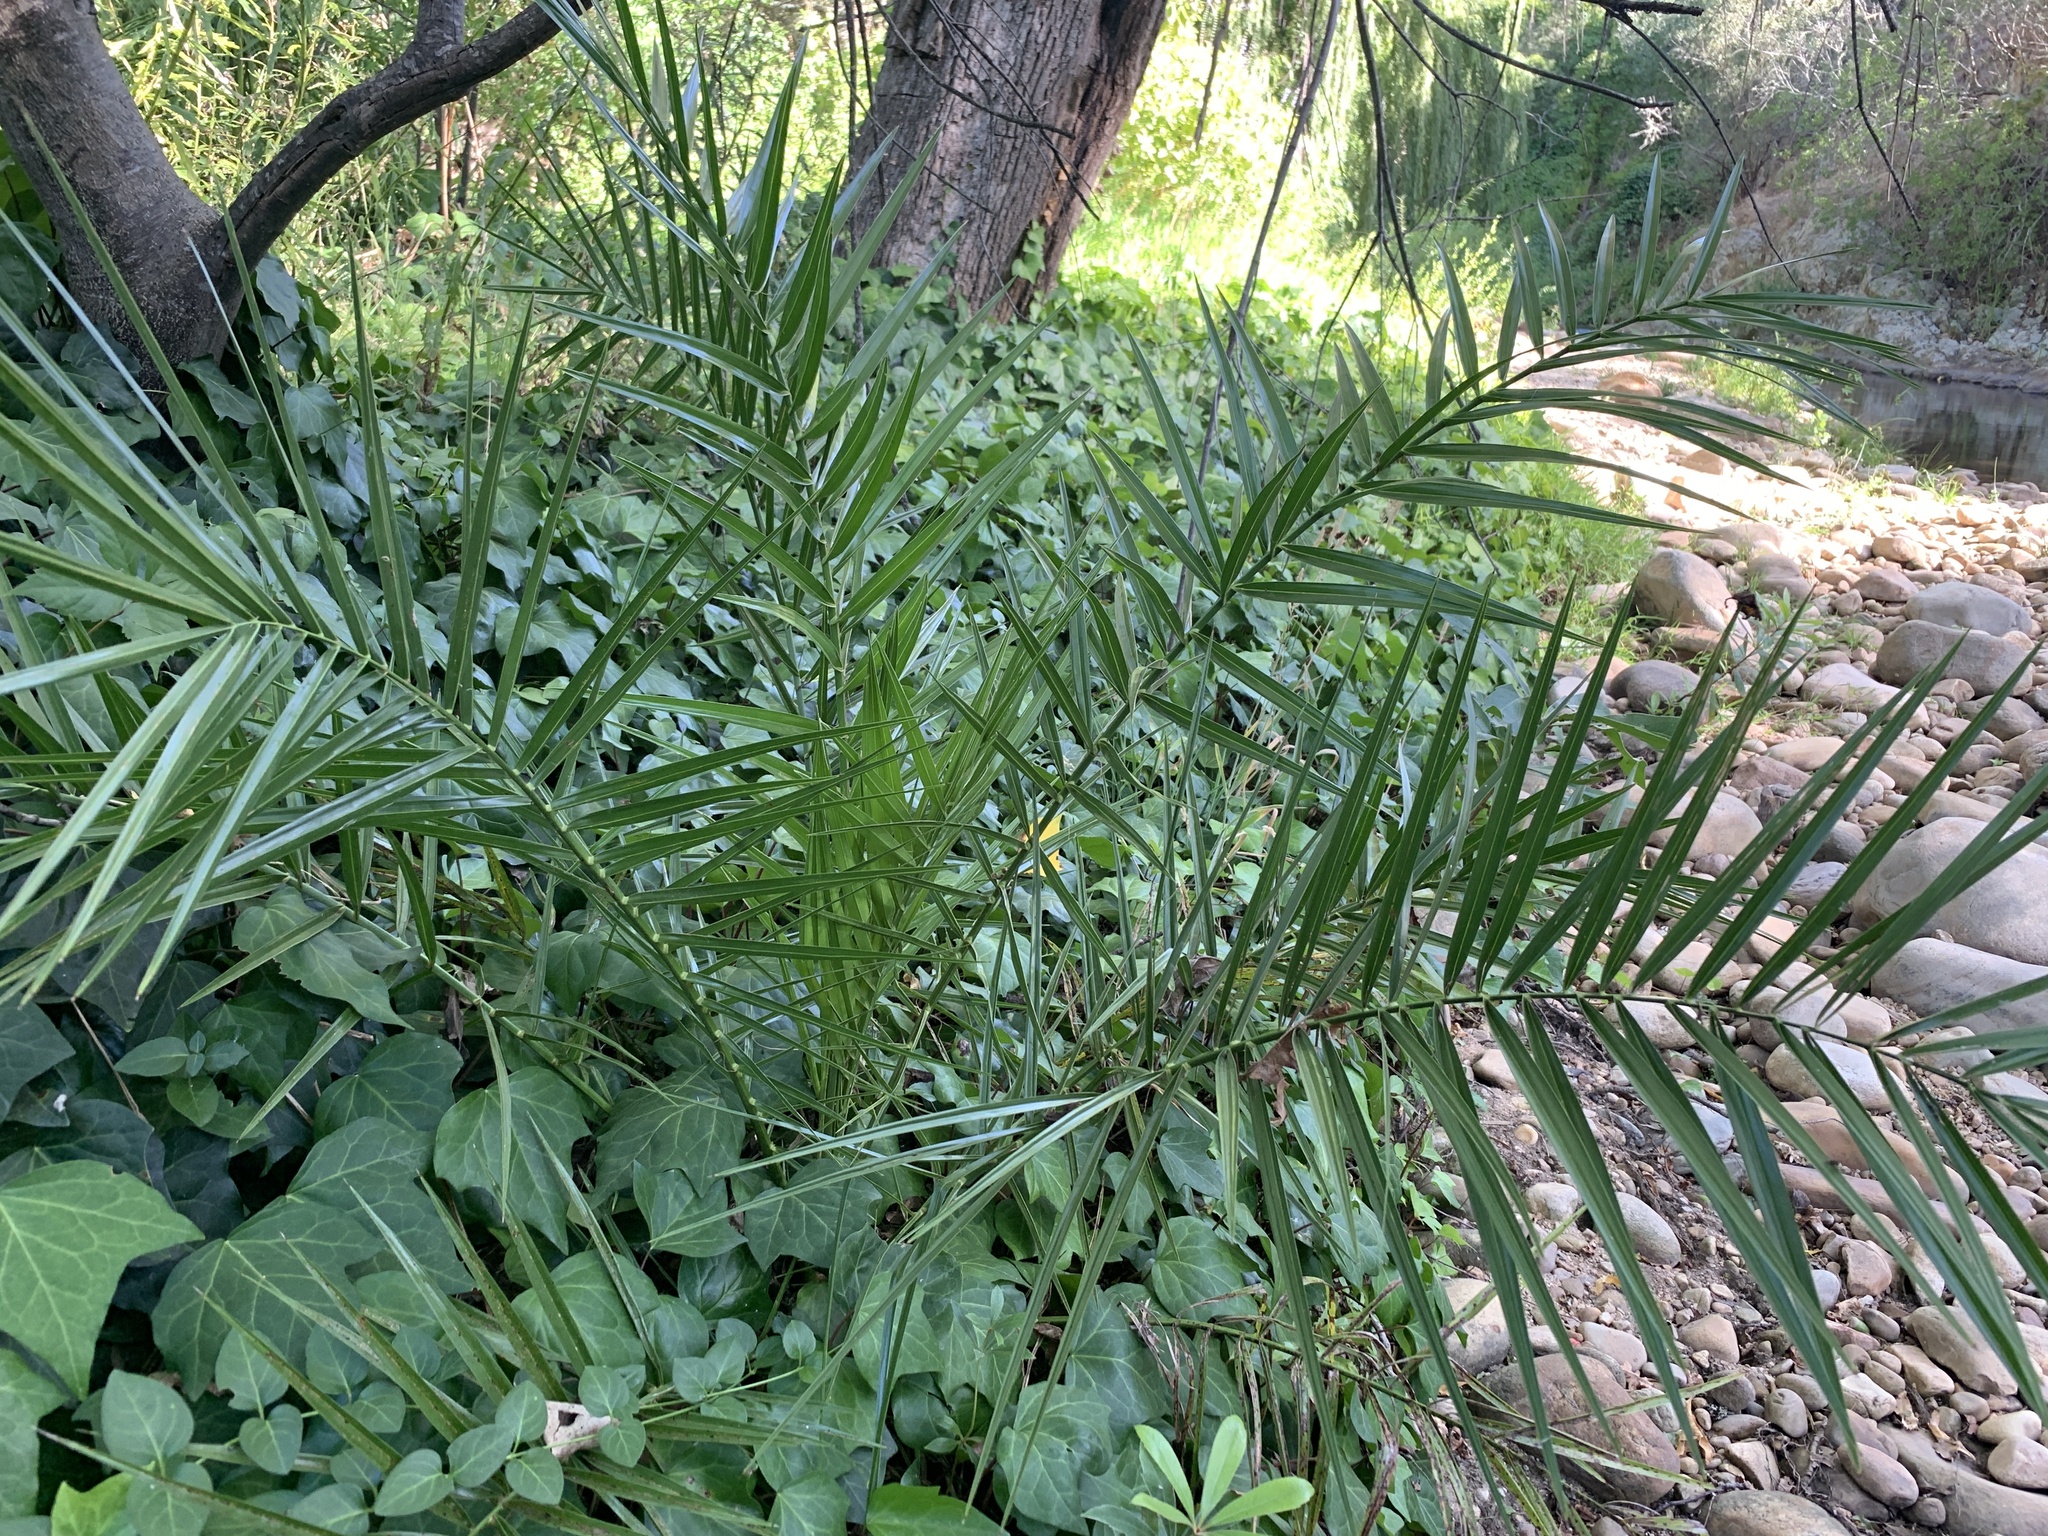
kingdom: Plantae
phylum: Tracheophyta
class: Liliopsida
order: Arecales
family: Arecaceae
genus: Phoenix
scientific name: Phoenix canariensis
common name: Canary island date palm
